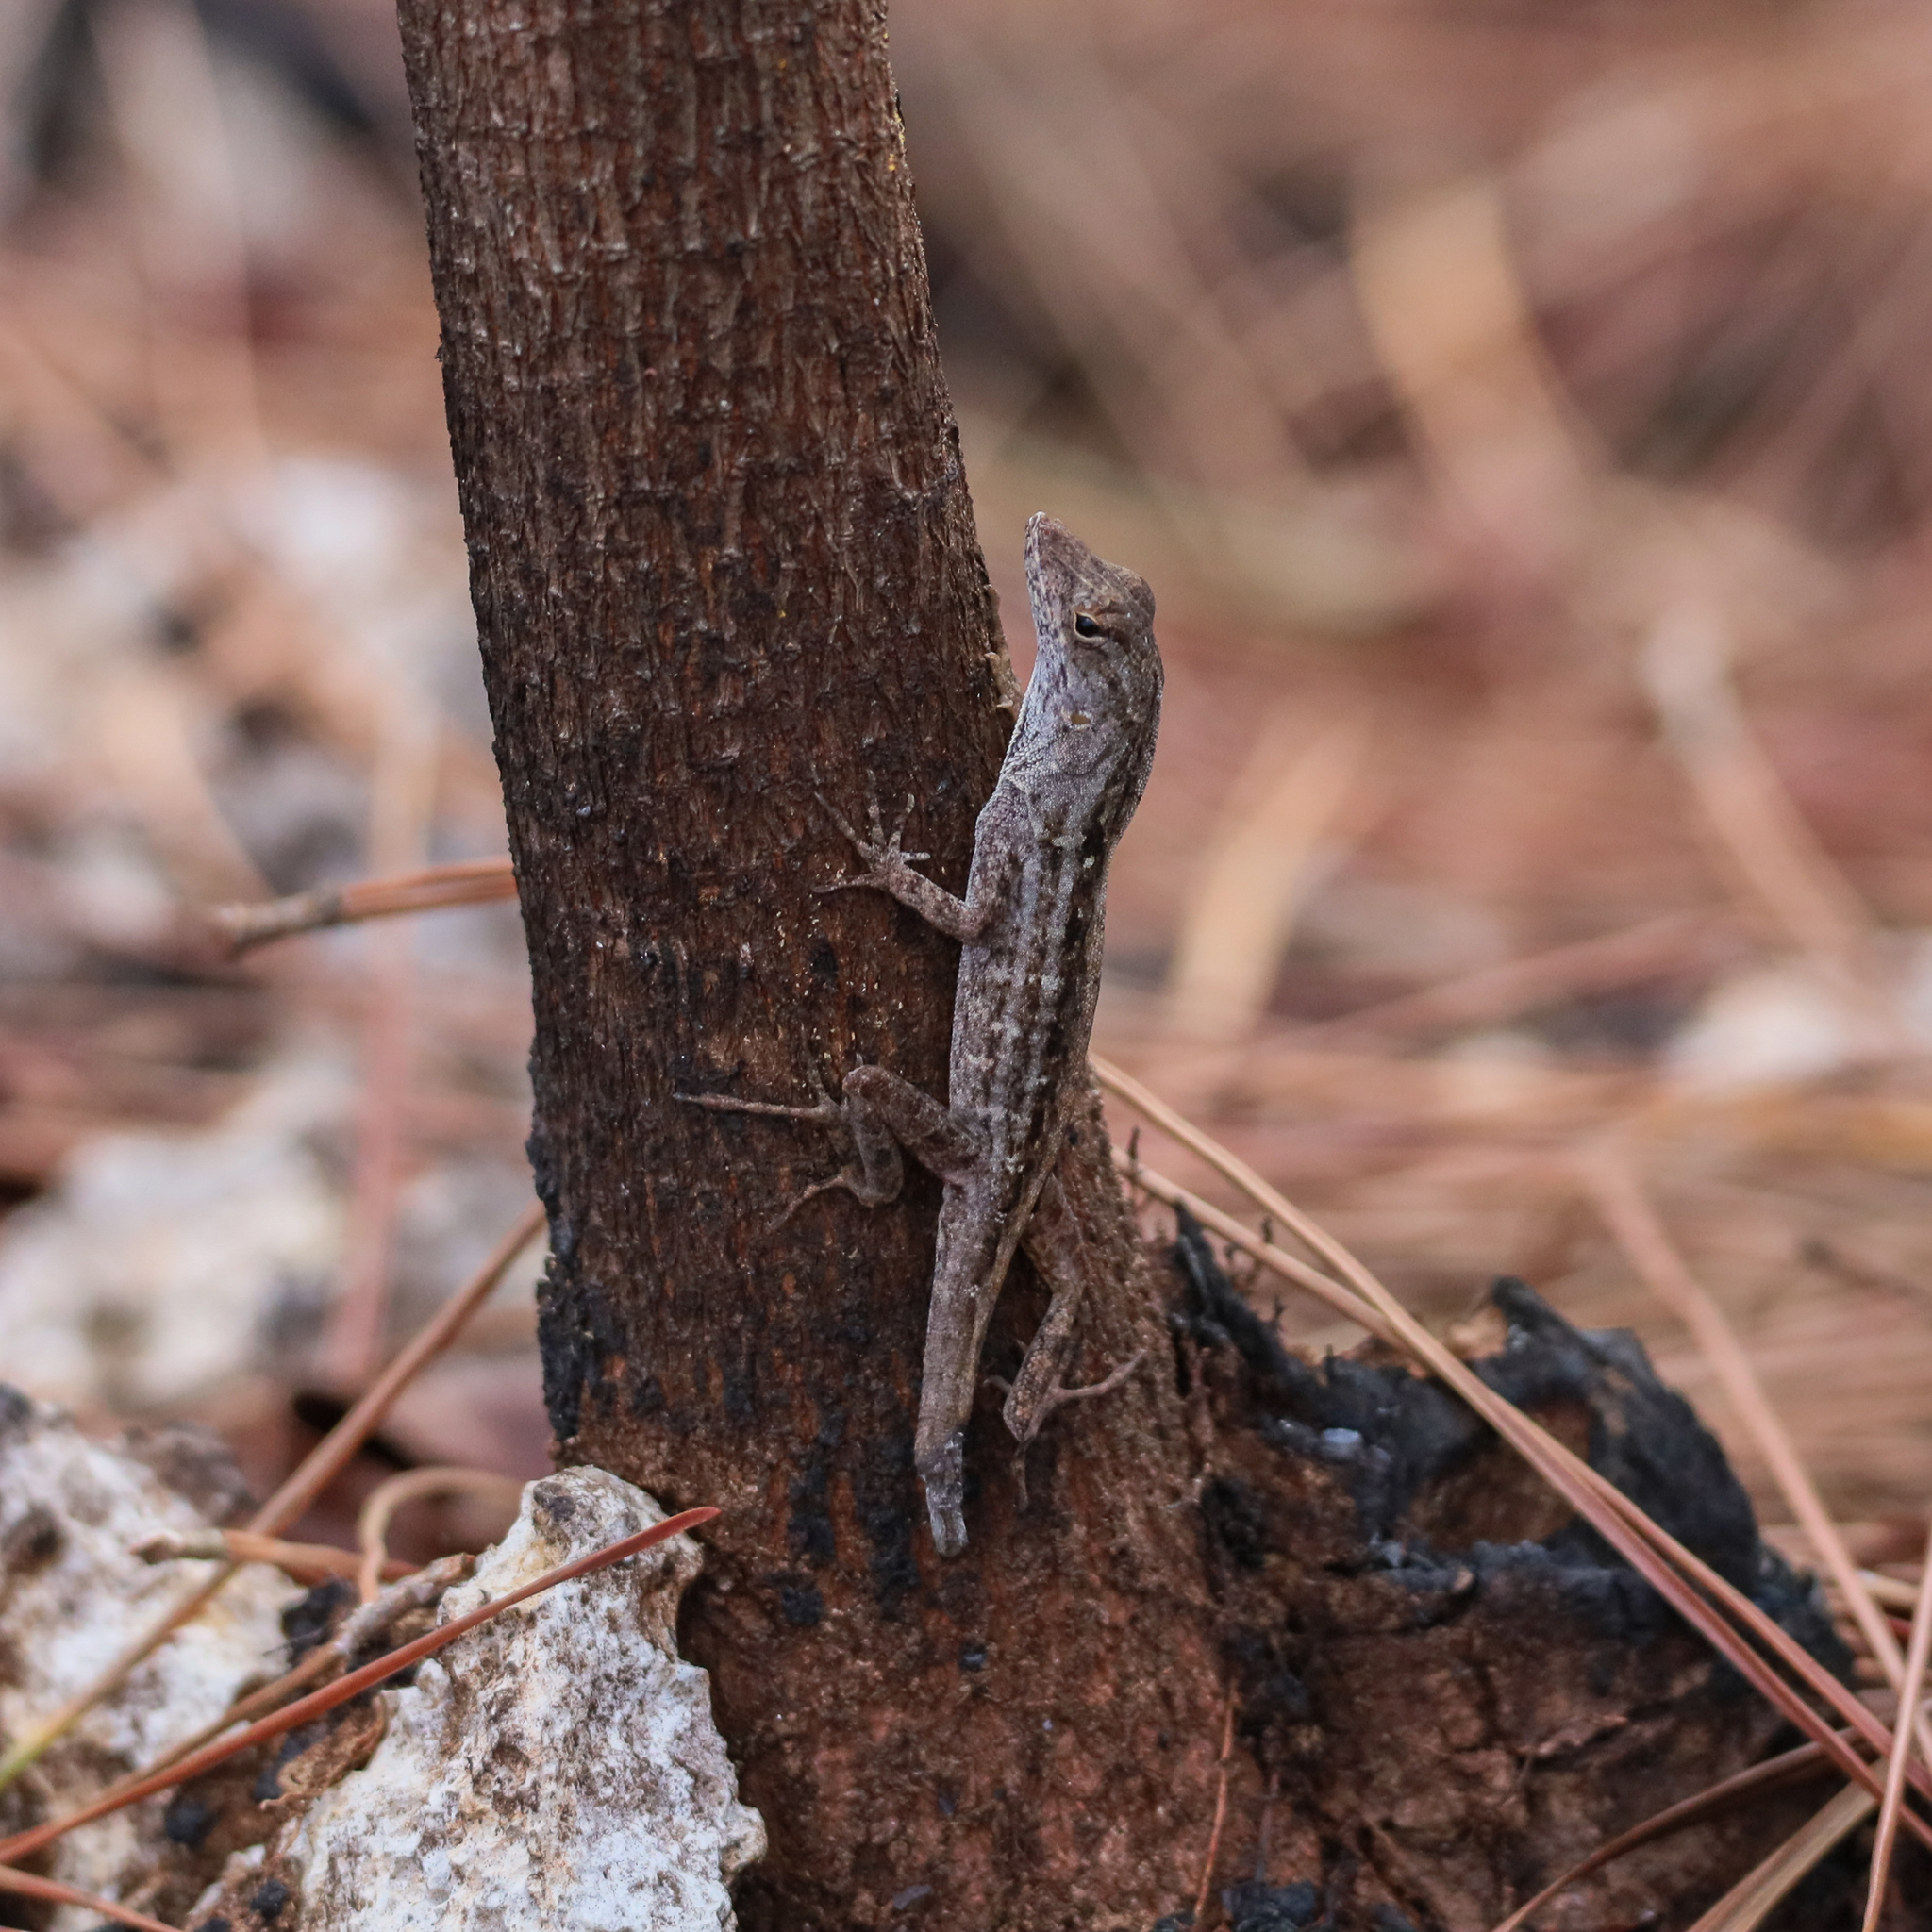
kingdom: Animalia
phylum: Chordata
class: Squamata
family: Dactyloidae
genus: Anolis
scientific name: Anolis sagrei
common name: Brown anole
